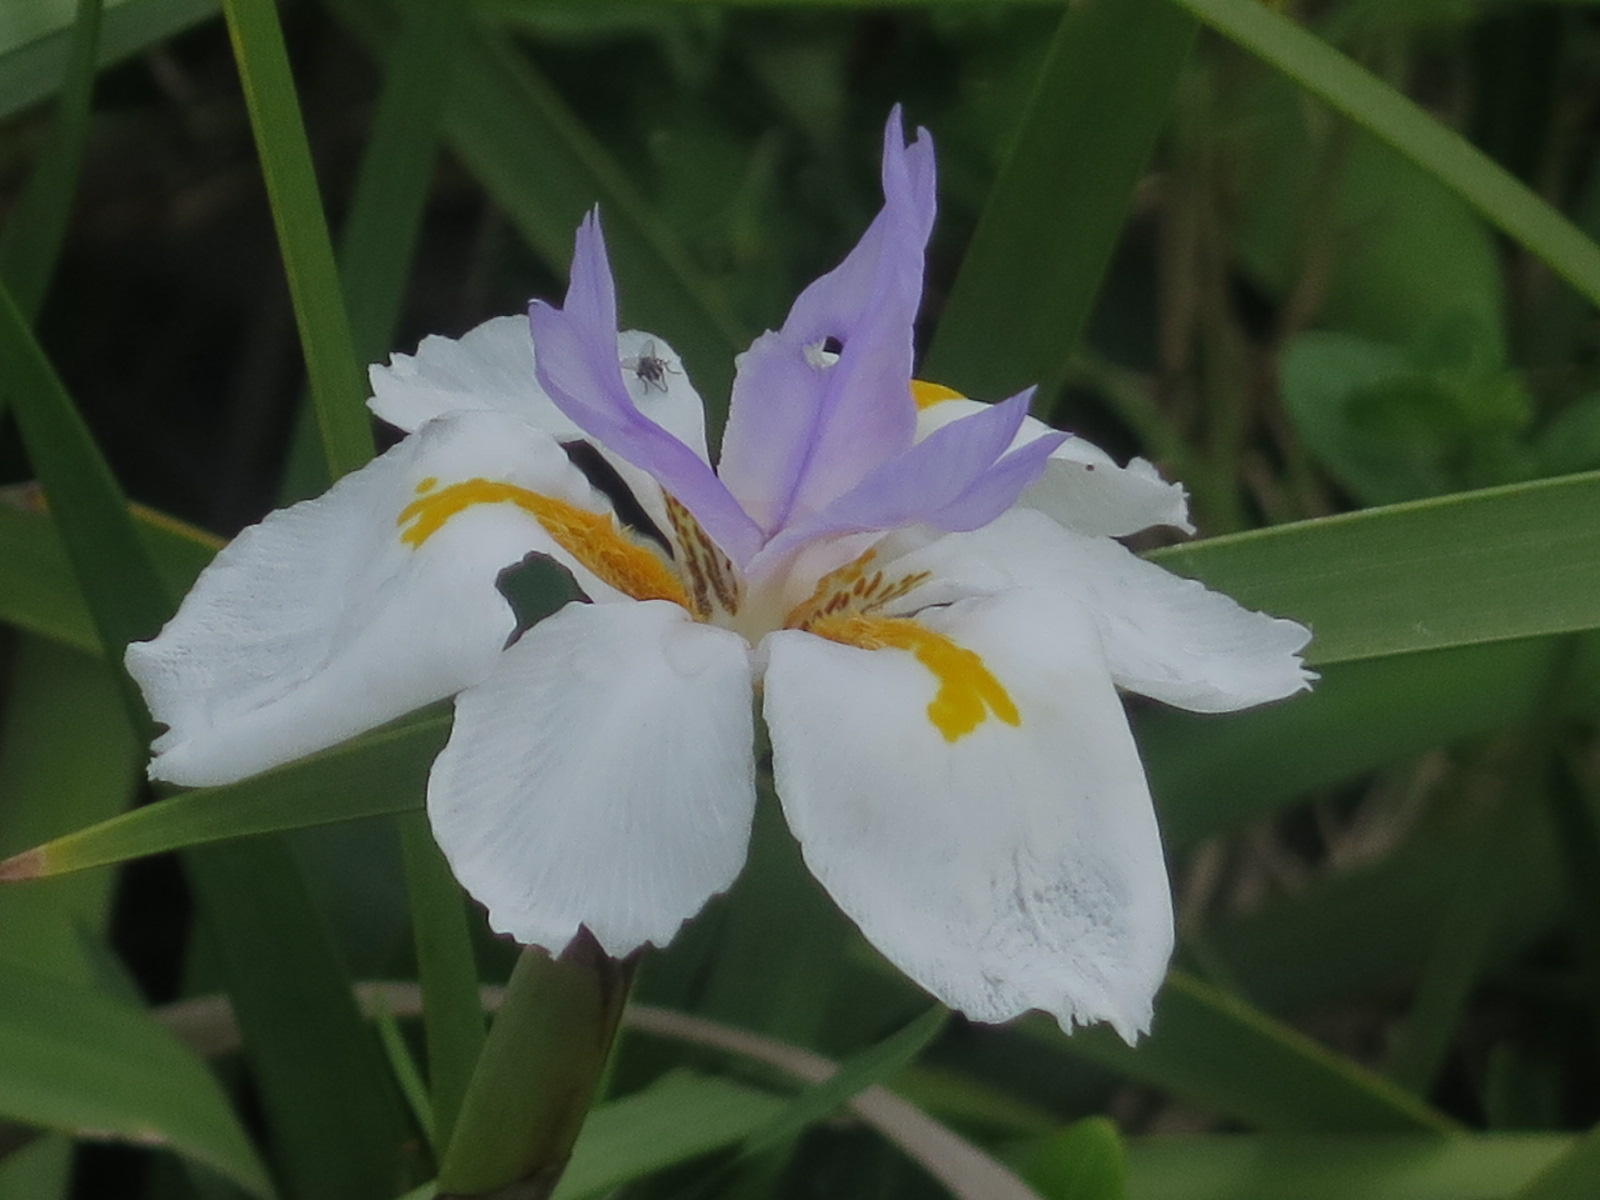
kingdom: Plantae
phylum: Tracheophyta
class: Liliopsida
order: Asparagales
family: Iridaceae
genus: Dietes
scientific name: Dietes grandiflora
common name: Wild iris
